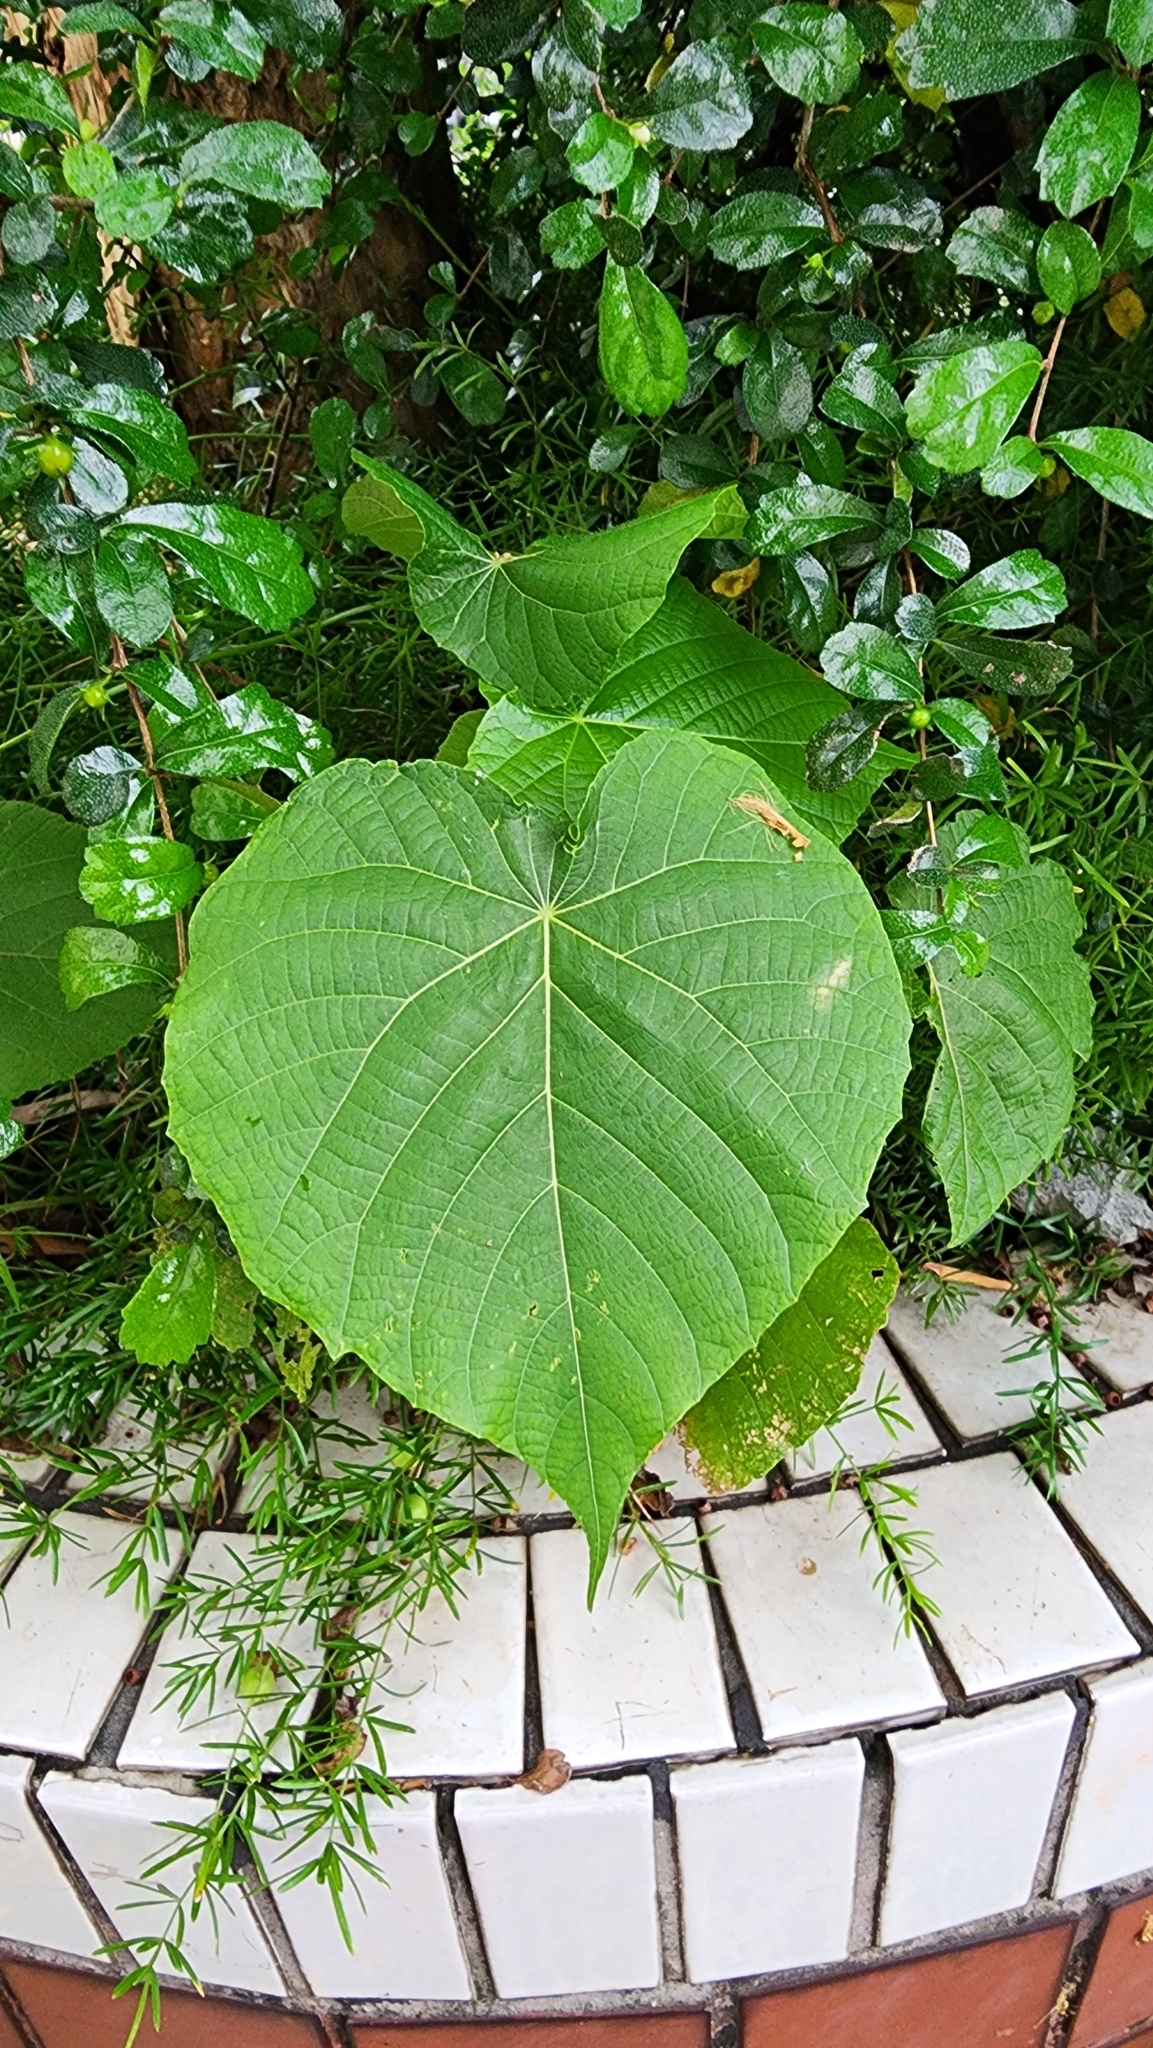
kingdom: Plantae
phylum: Tracheophyta
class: Magnoliopsida
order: Malpighiales
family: Euphorbiaceae
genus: Macaranga
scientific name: Macaranga tanarius
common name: Parasol leaf tree
